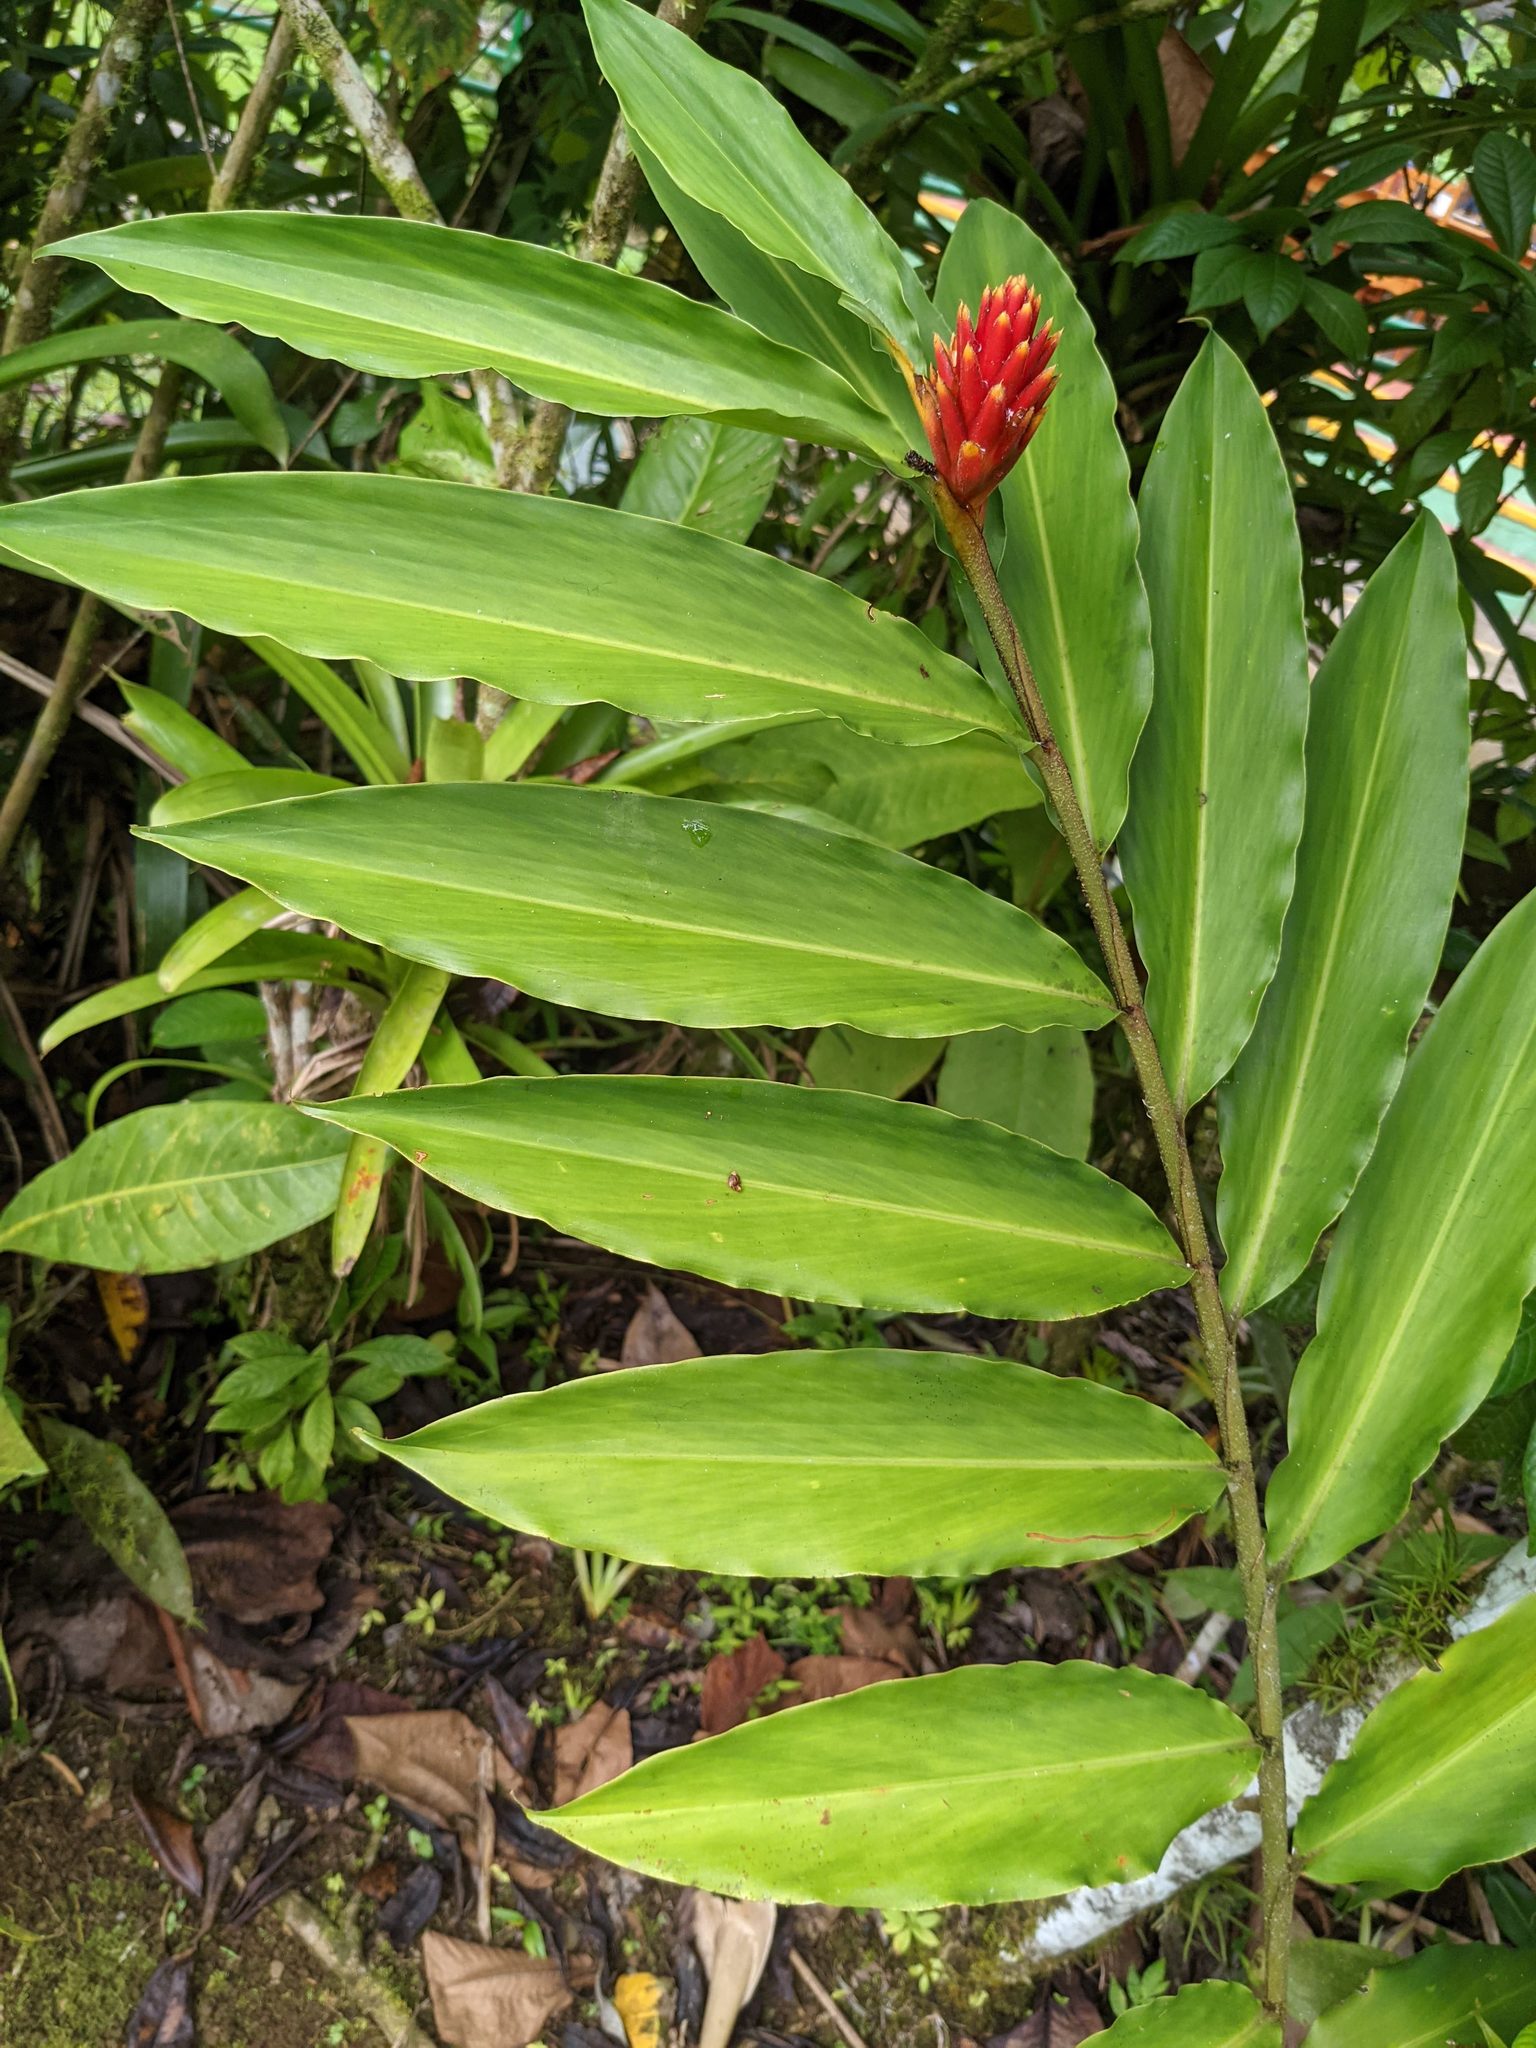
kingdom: Plantae
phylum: Tracheophyta
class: Liliopsida
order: Zingiberales
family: Zingiberaceae
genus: Renealmia
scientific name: Renealmia cernua
